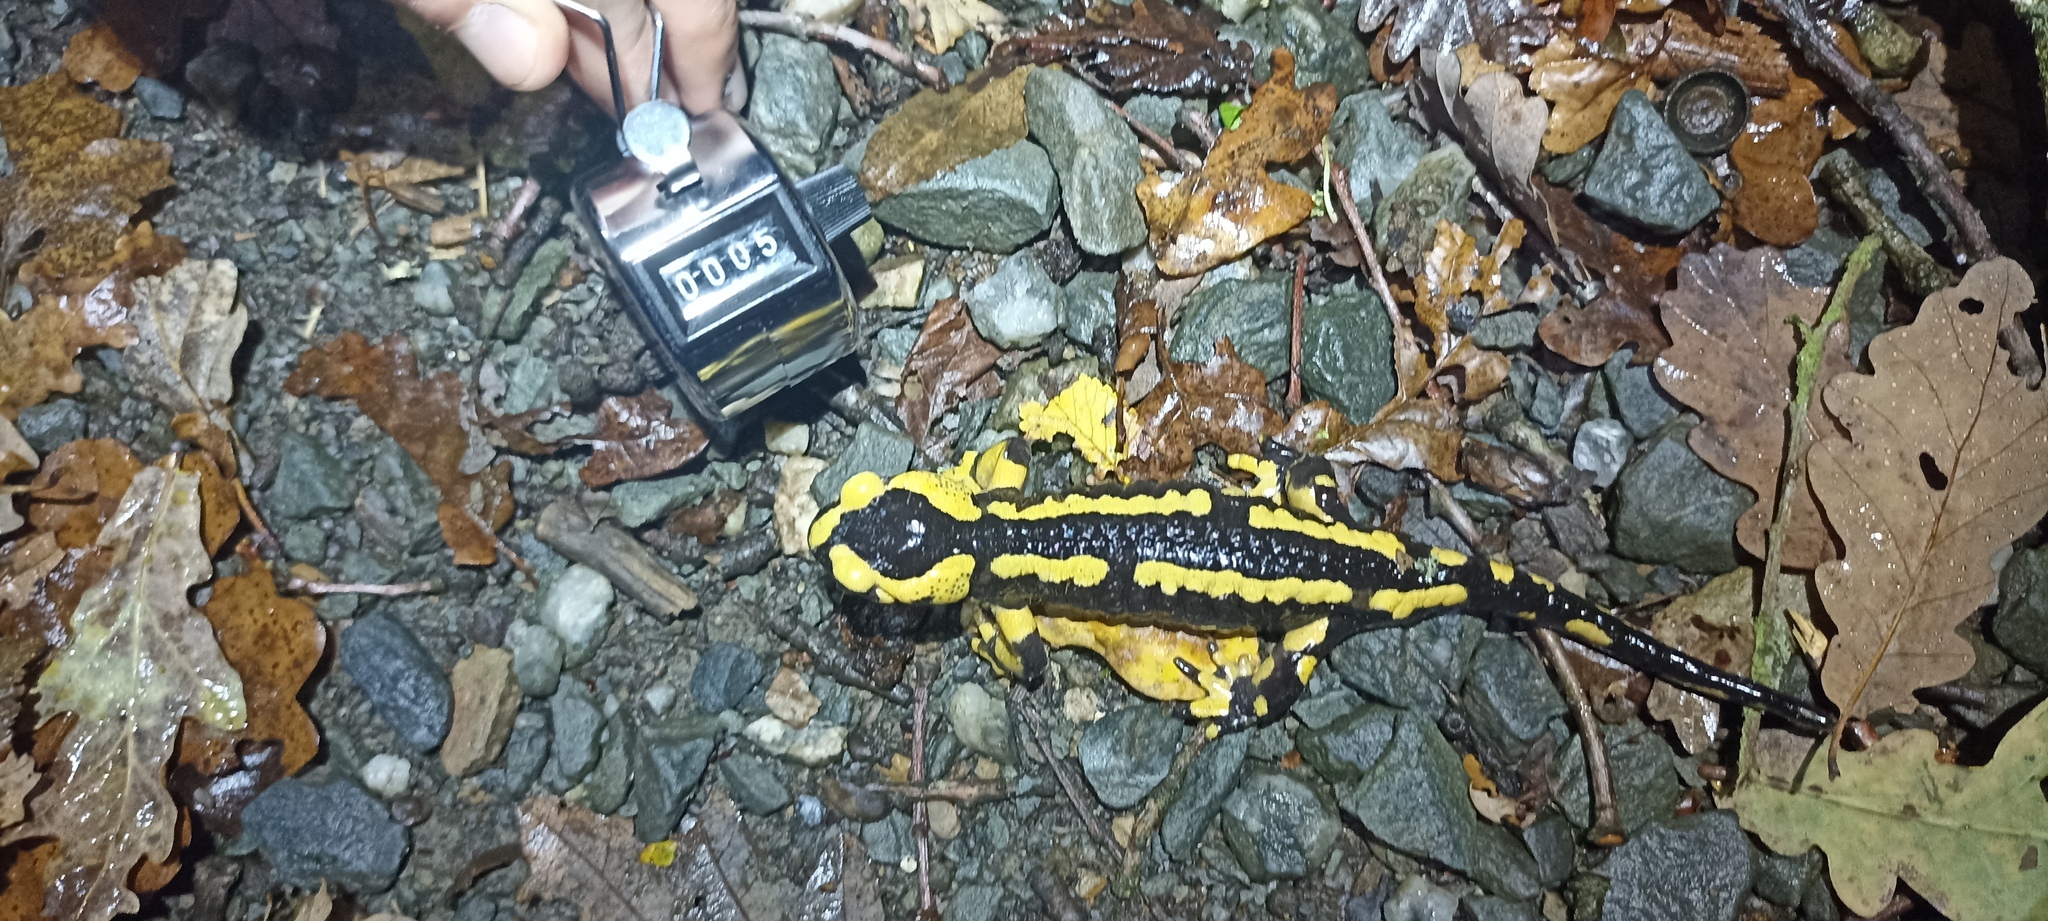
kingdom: Animalia
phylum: Chordata
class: Amphibia
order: Caudata
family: Salamandridae
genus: Salamandra
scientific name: Salamandra salamandra
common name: Fire salamander
